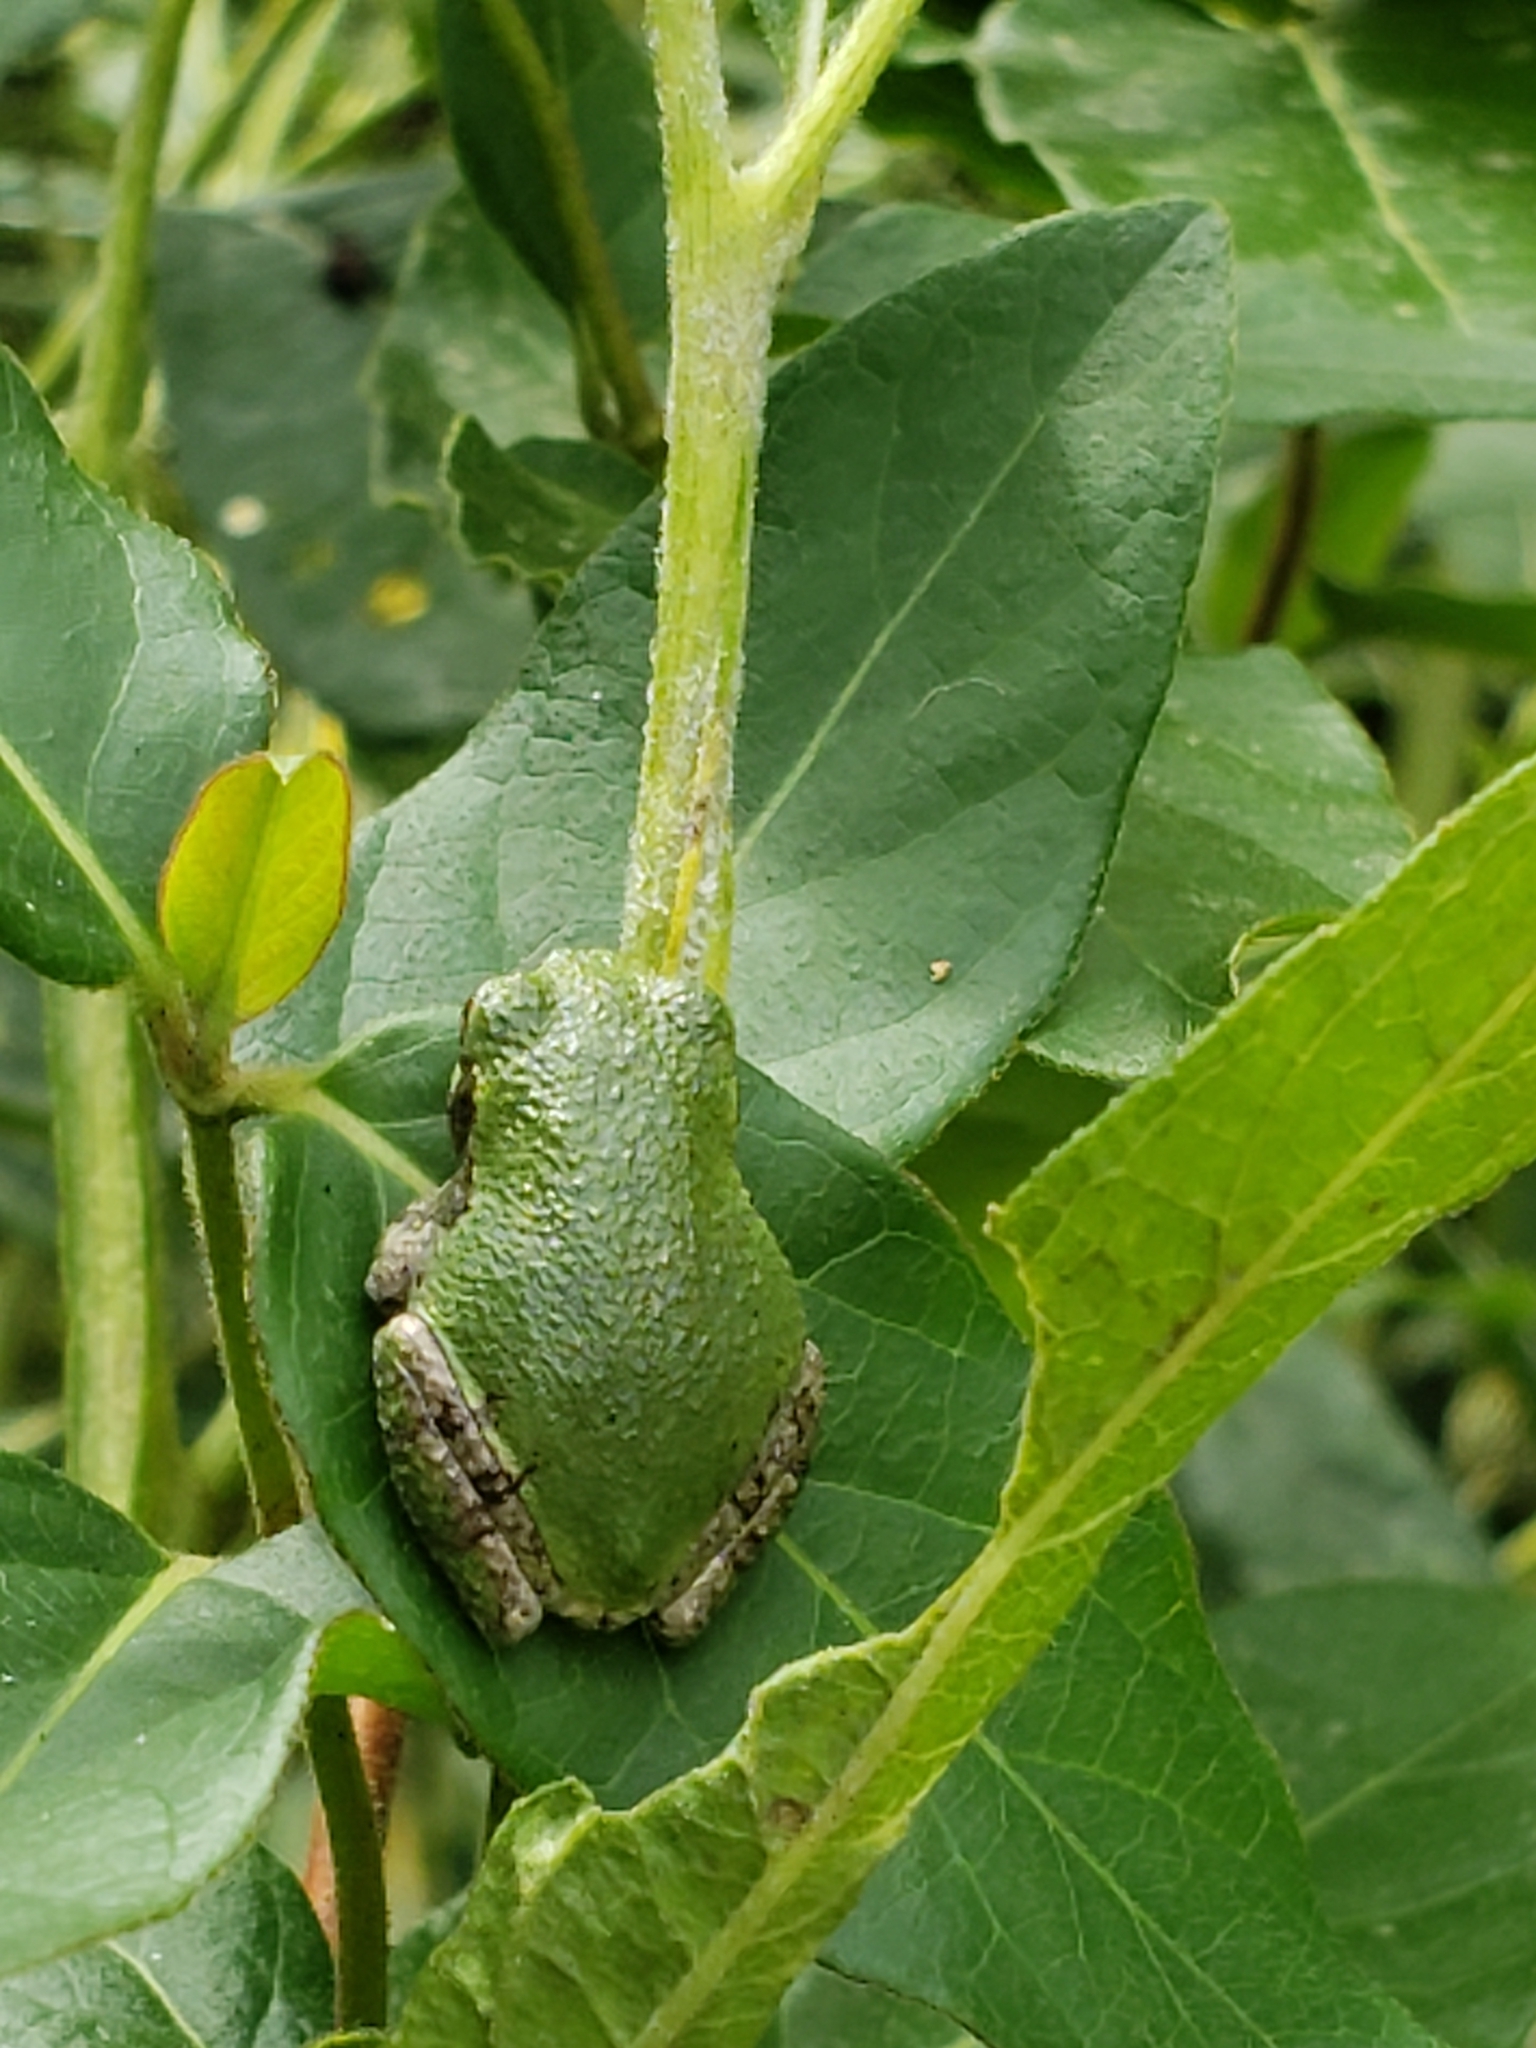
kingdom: Animalia
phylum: Chordata
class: Amphibia
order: Anura
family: Hylidae
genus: Hyla
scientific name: Hyla
